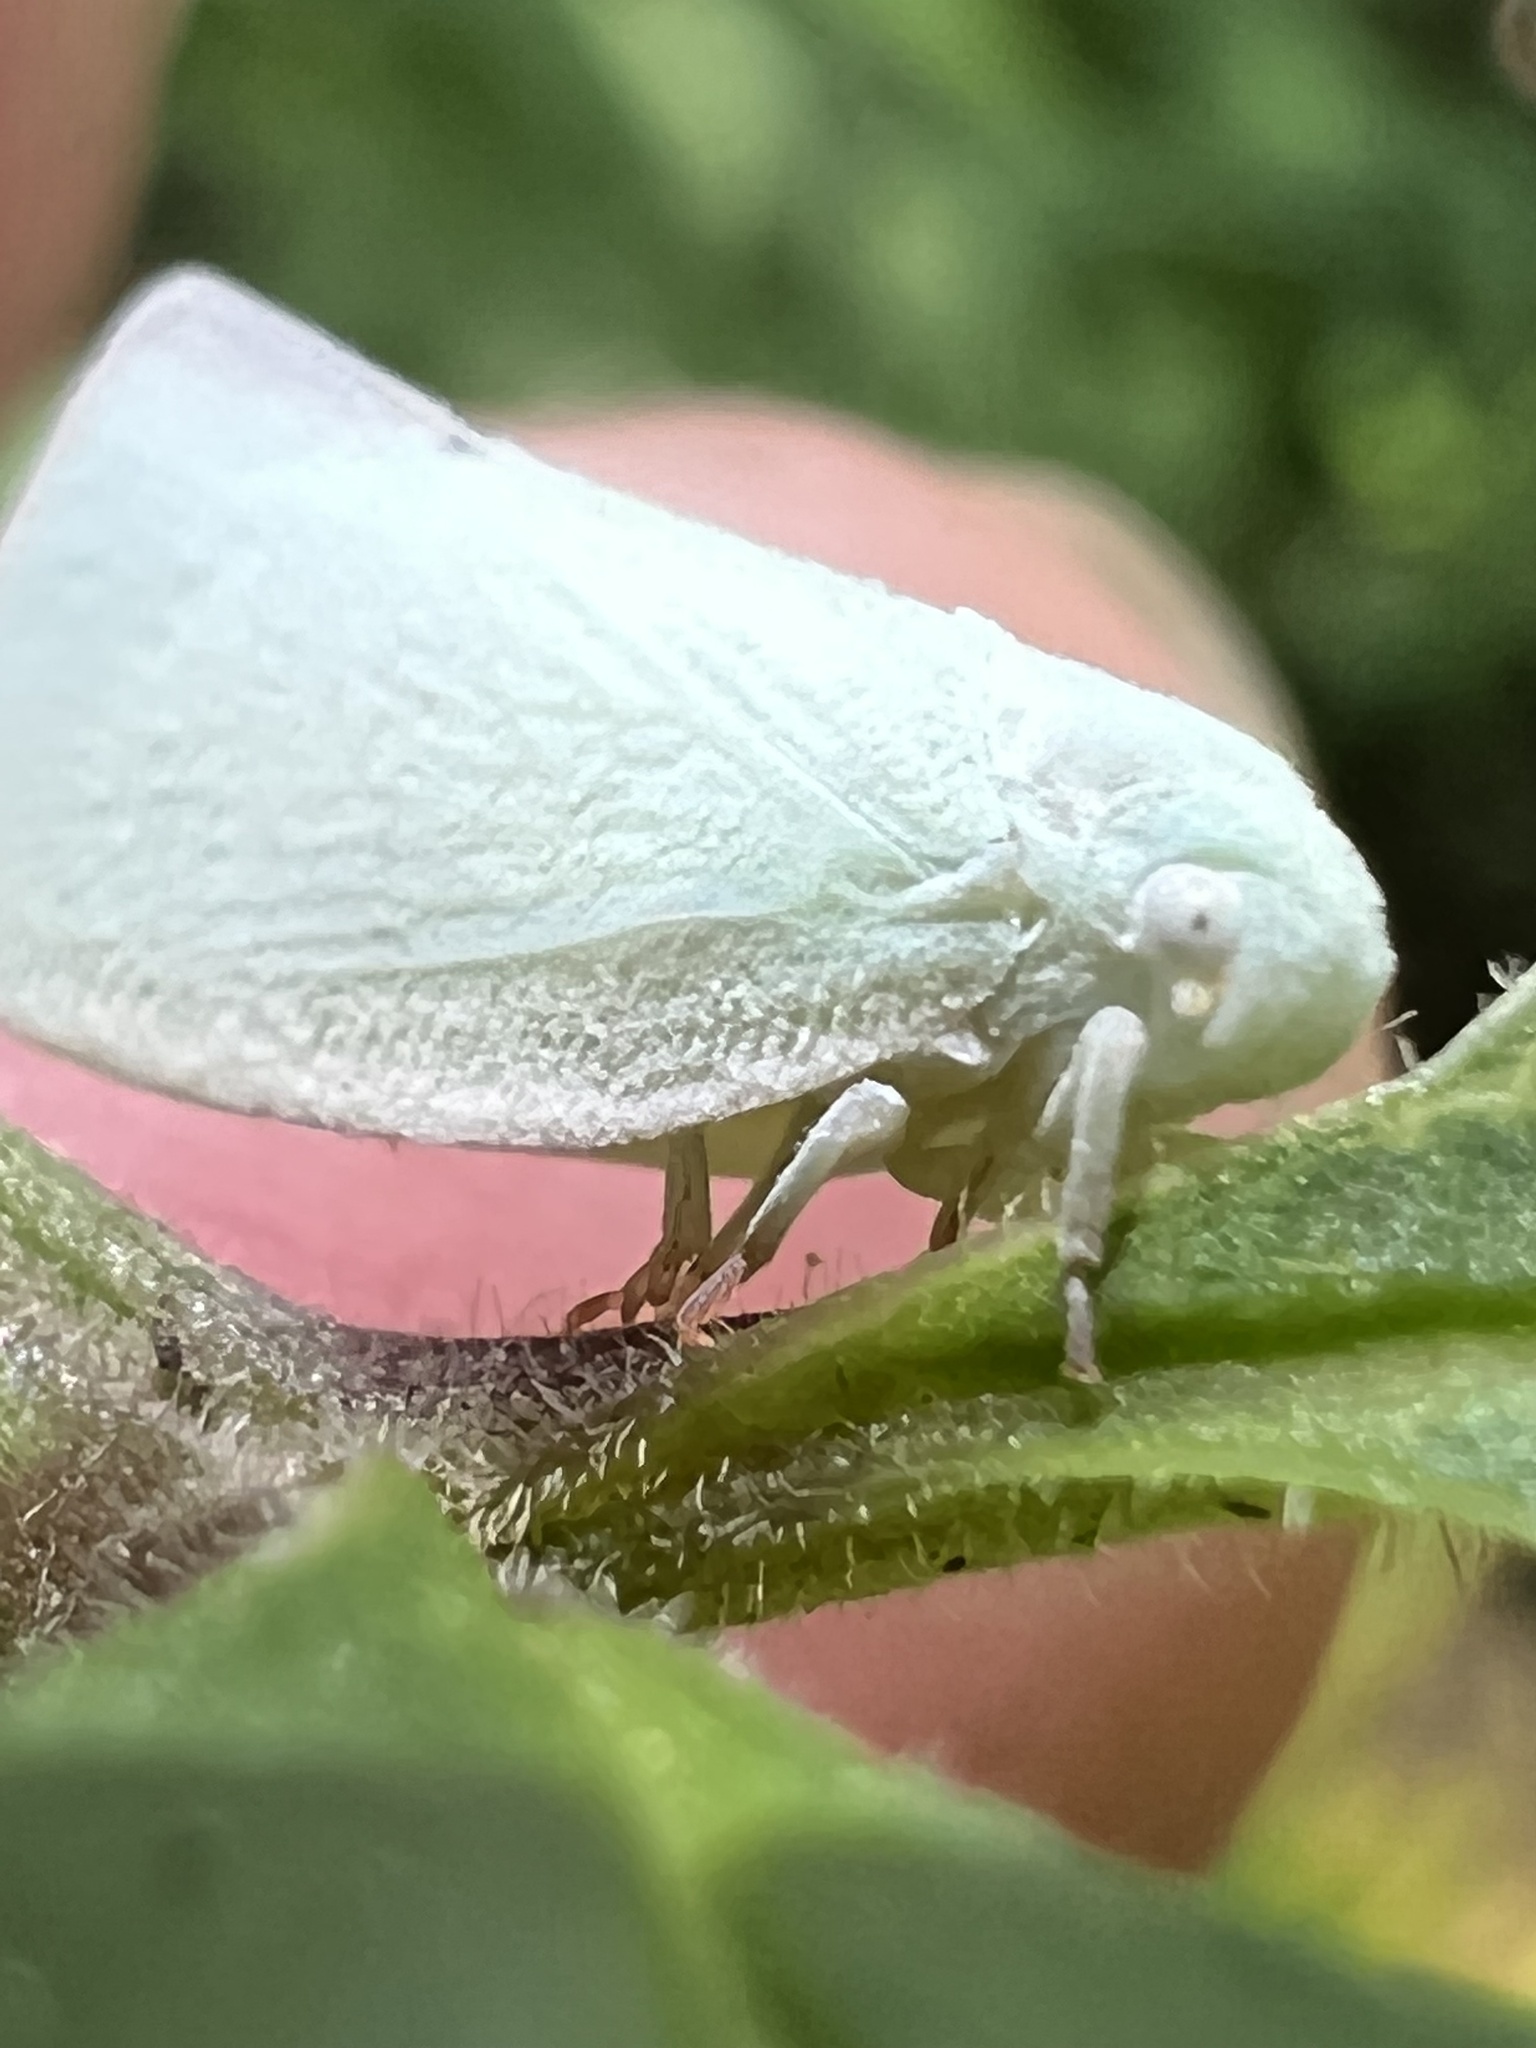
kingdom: Animalia
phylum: Arthropoda
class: Insecta
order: Hemiptera
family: Flatidae
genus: Flatormenis
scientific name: Flatormenis proxima
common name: Northern flatid planthopper
